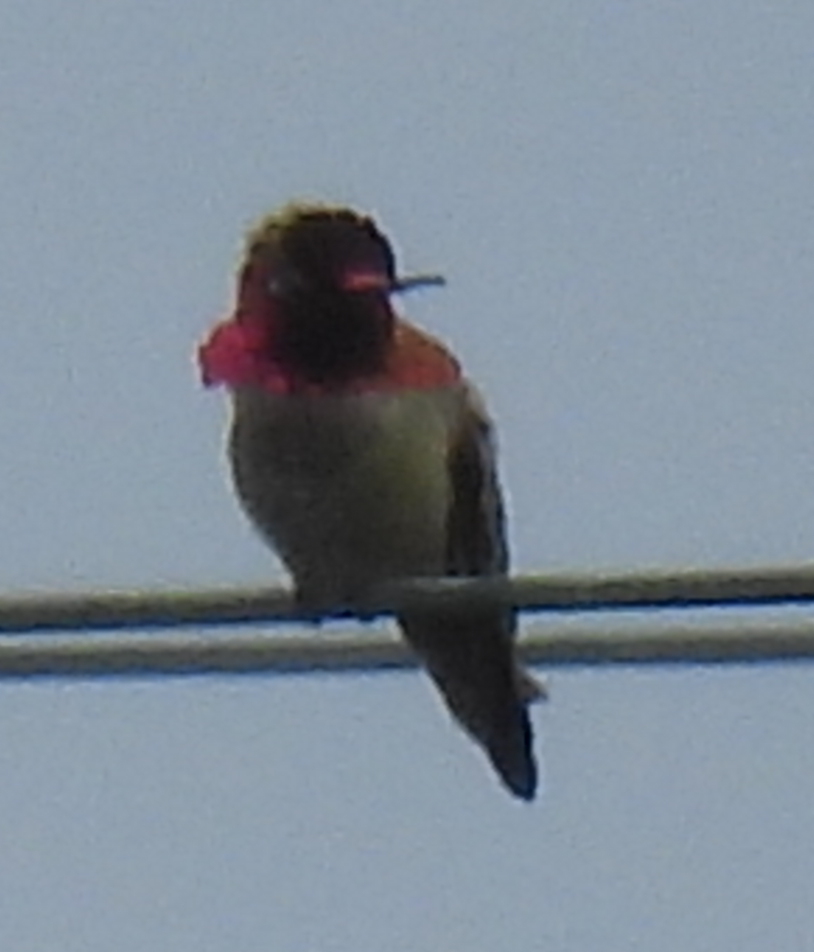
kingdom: Animalia
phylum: Chordata
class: Aves
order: Apodiformes
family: Trochilidae
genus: Calypte
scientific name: Calypte anna
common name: Anna's hummingbird
